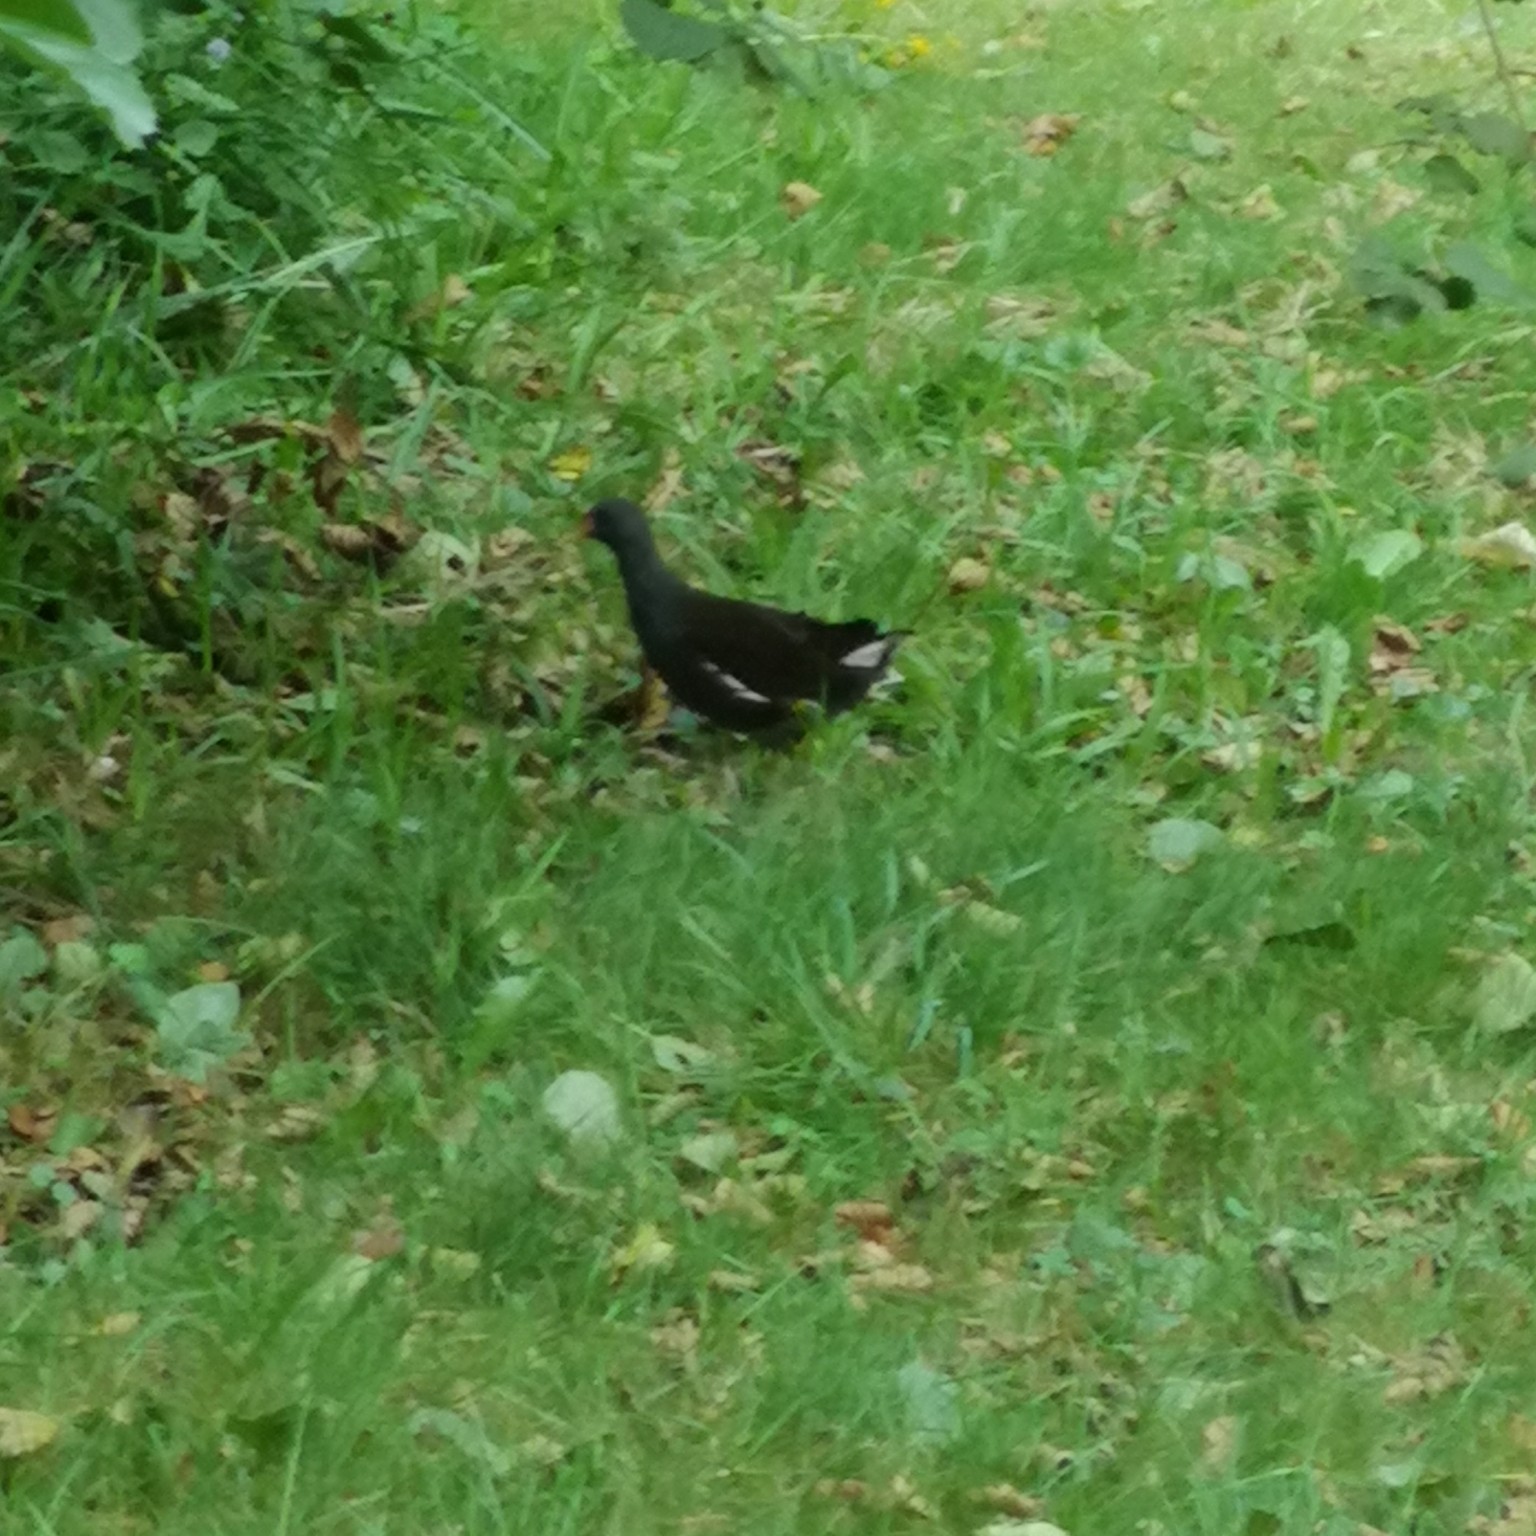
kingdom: Animalia
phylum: Chordata
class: Aves
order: Gruiformes
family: Rallidae
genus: Gallinula
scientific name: Gallinula chloropus
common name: Common moorhen
